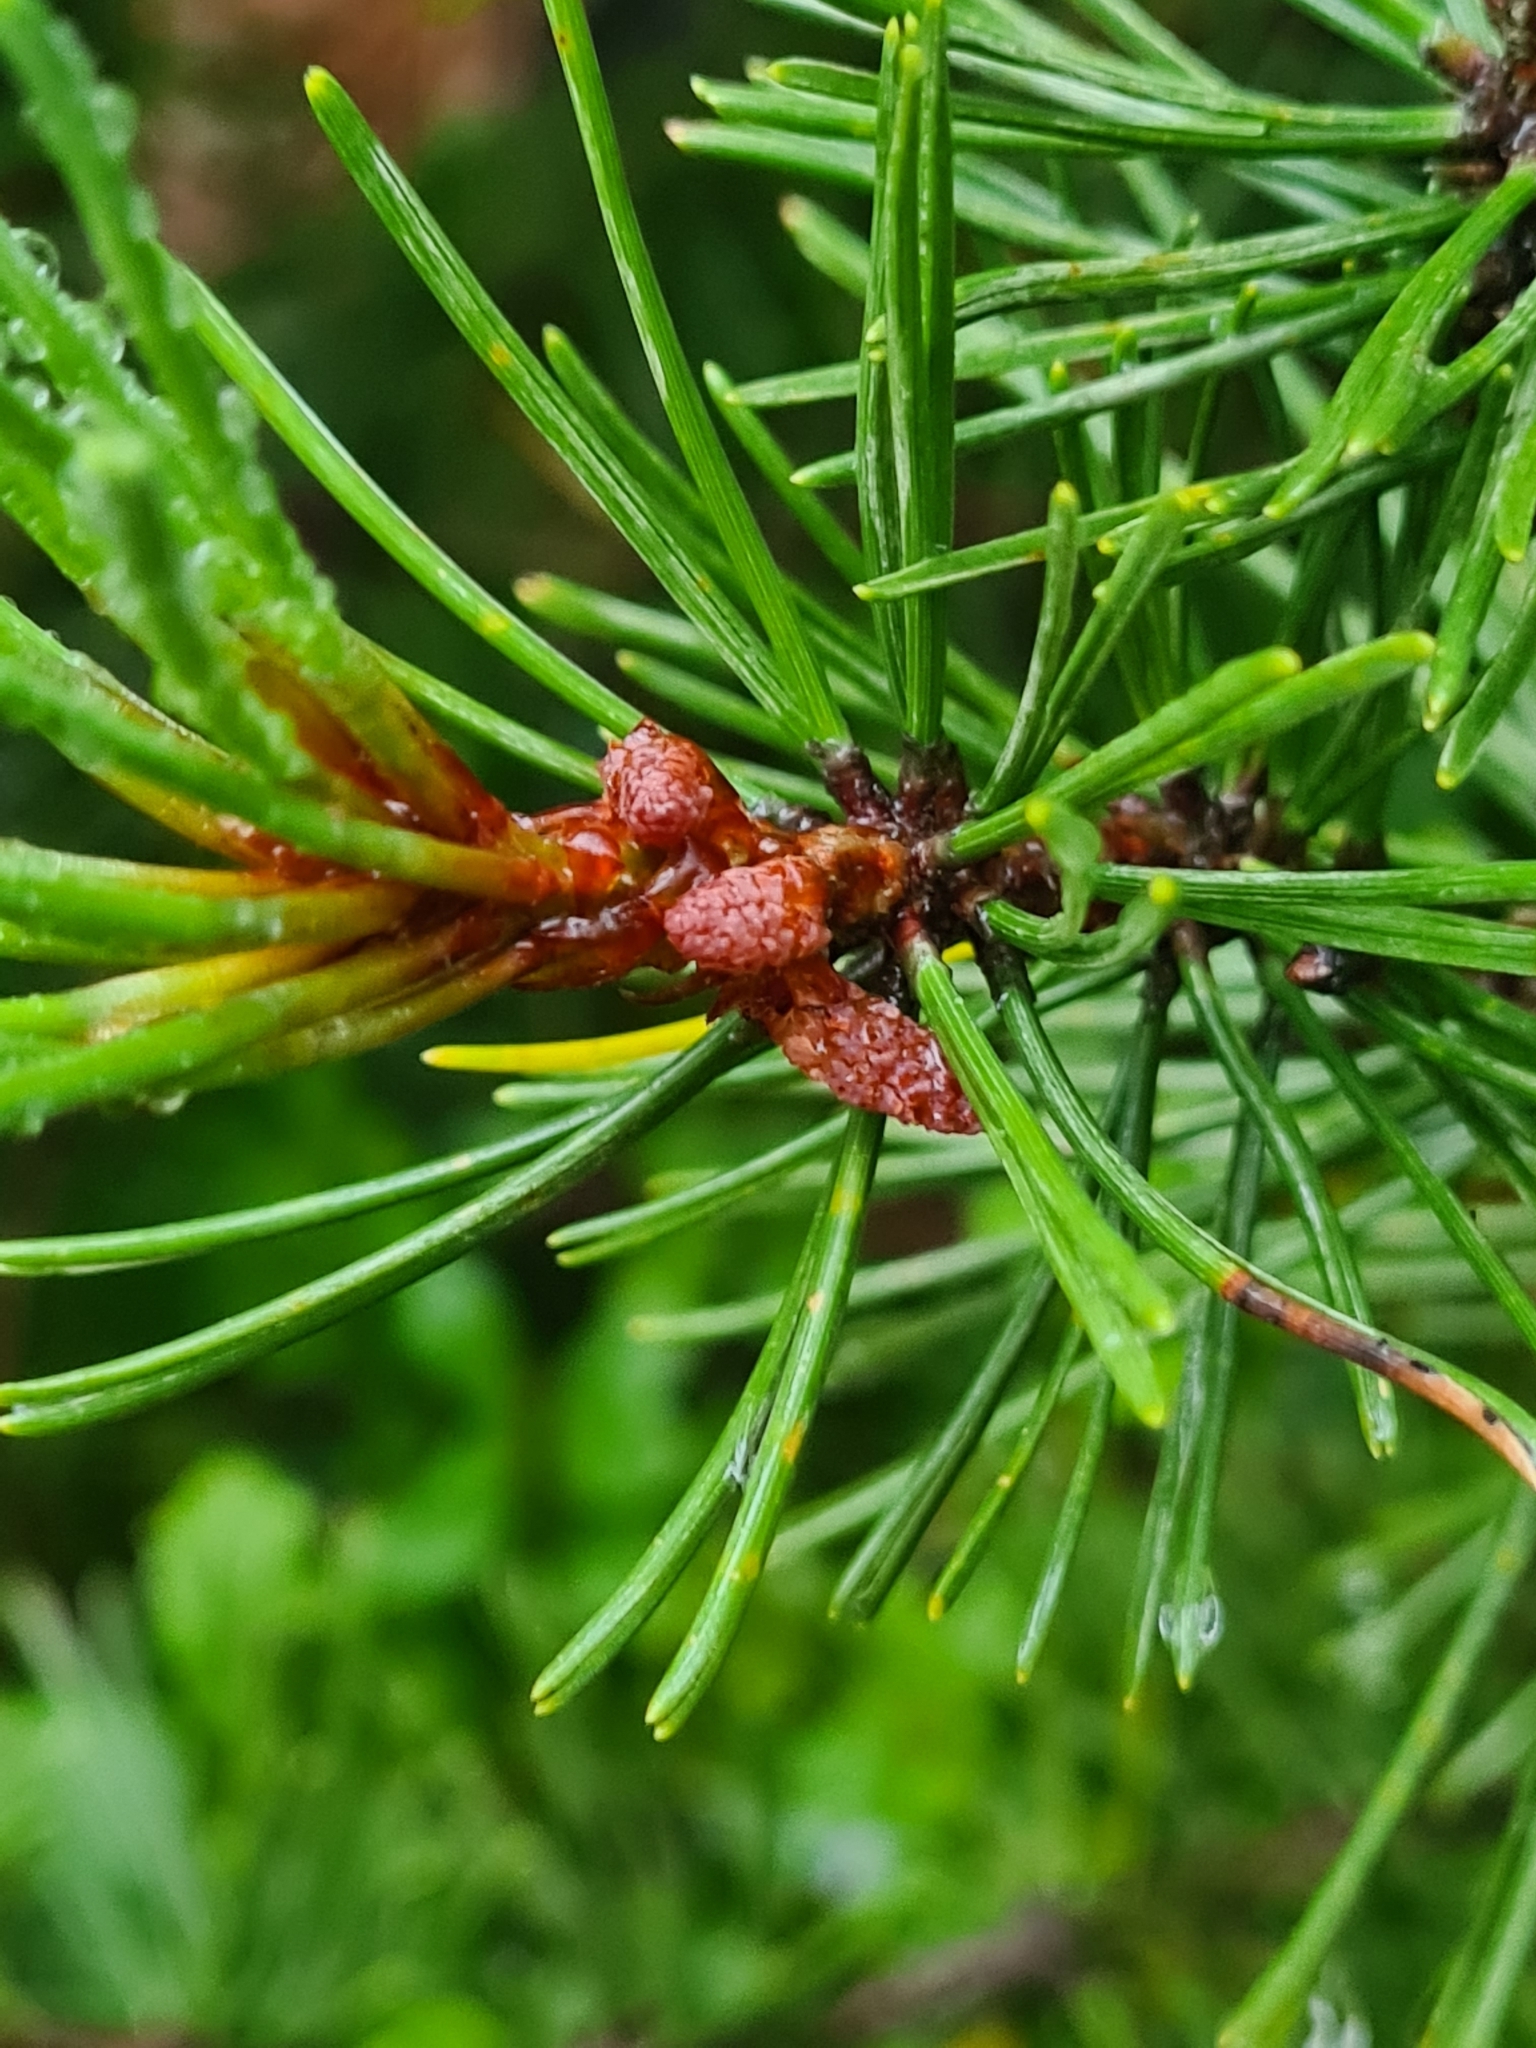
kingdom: Plantae
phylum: Tracheophyta
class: Pinopsida
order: Pinales
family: Pinaceae
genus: Pinus
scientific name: Pinus rhaetica
